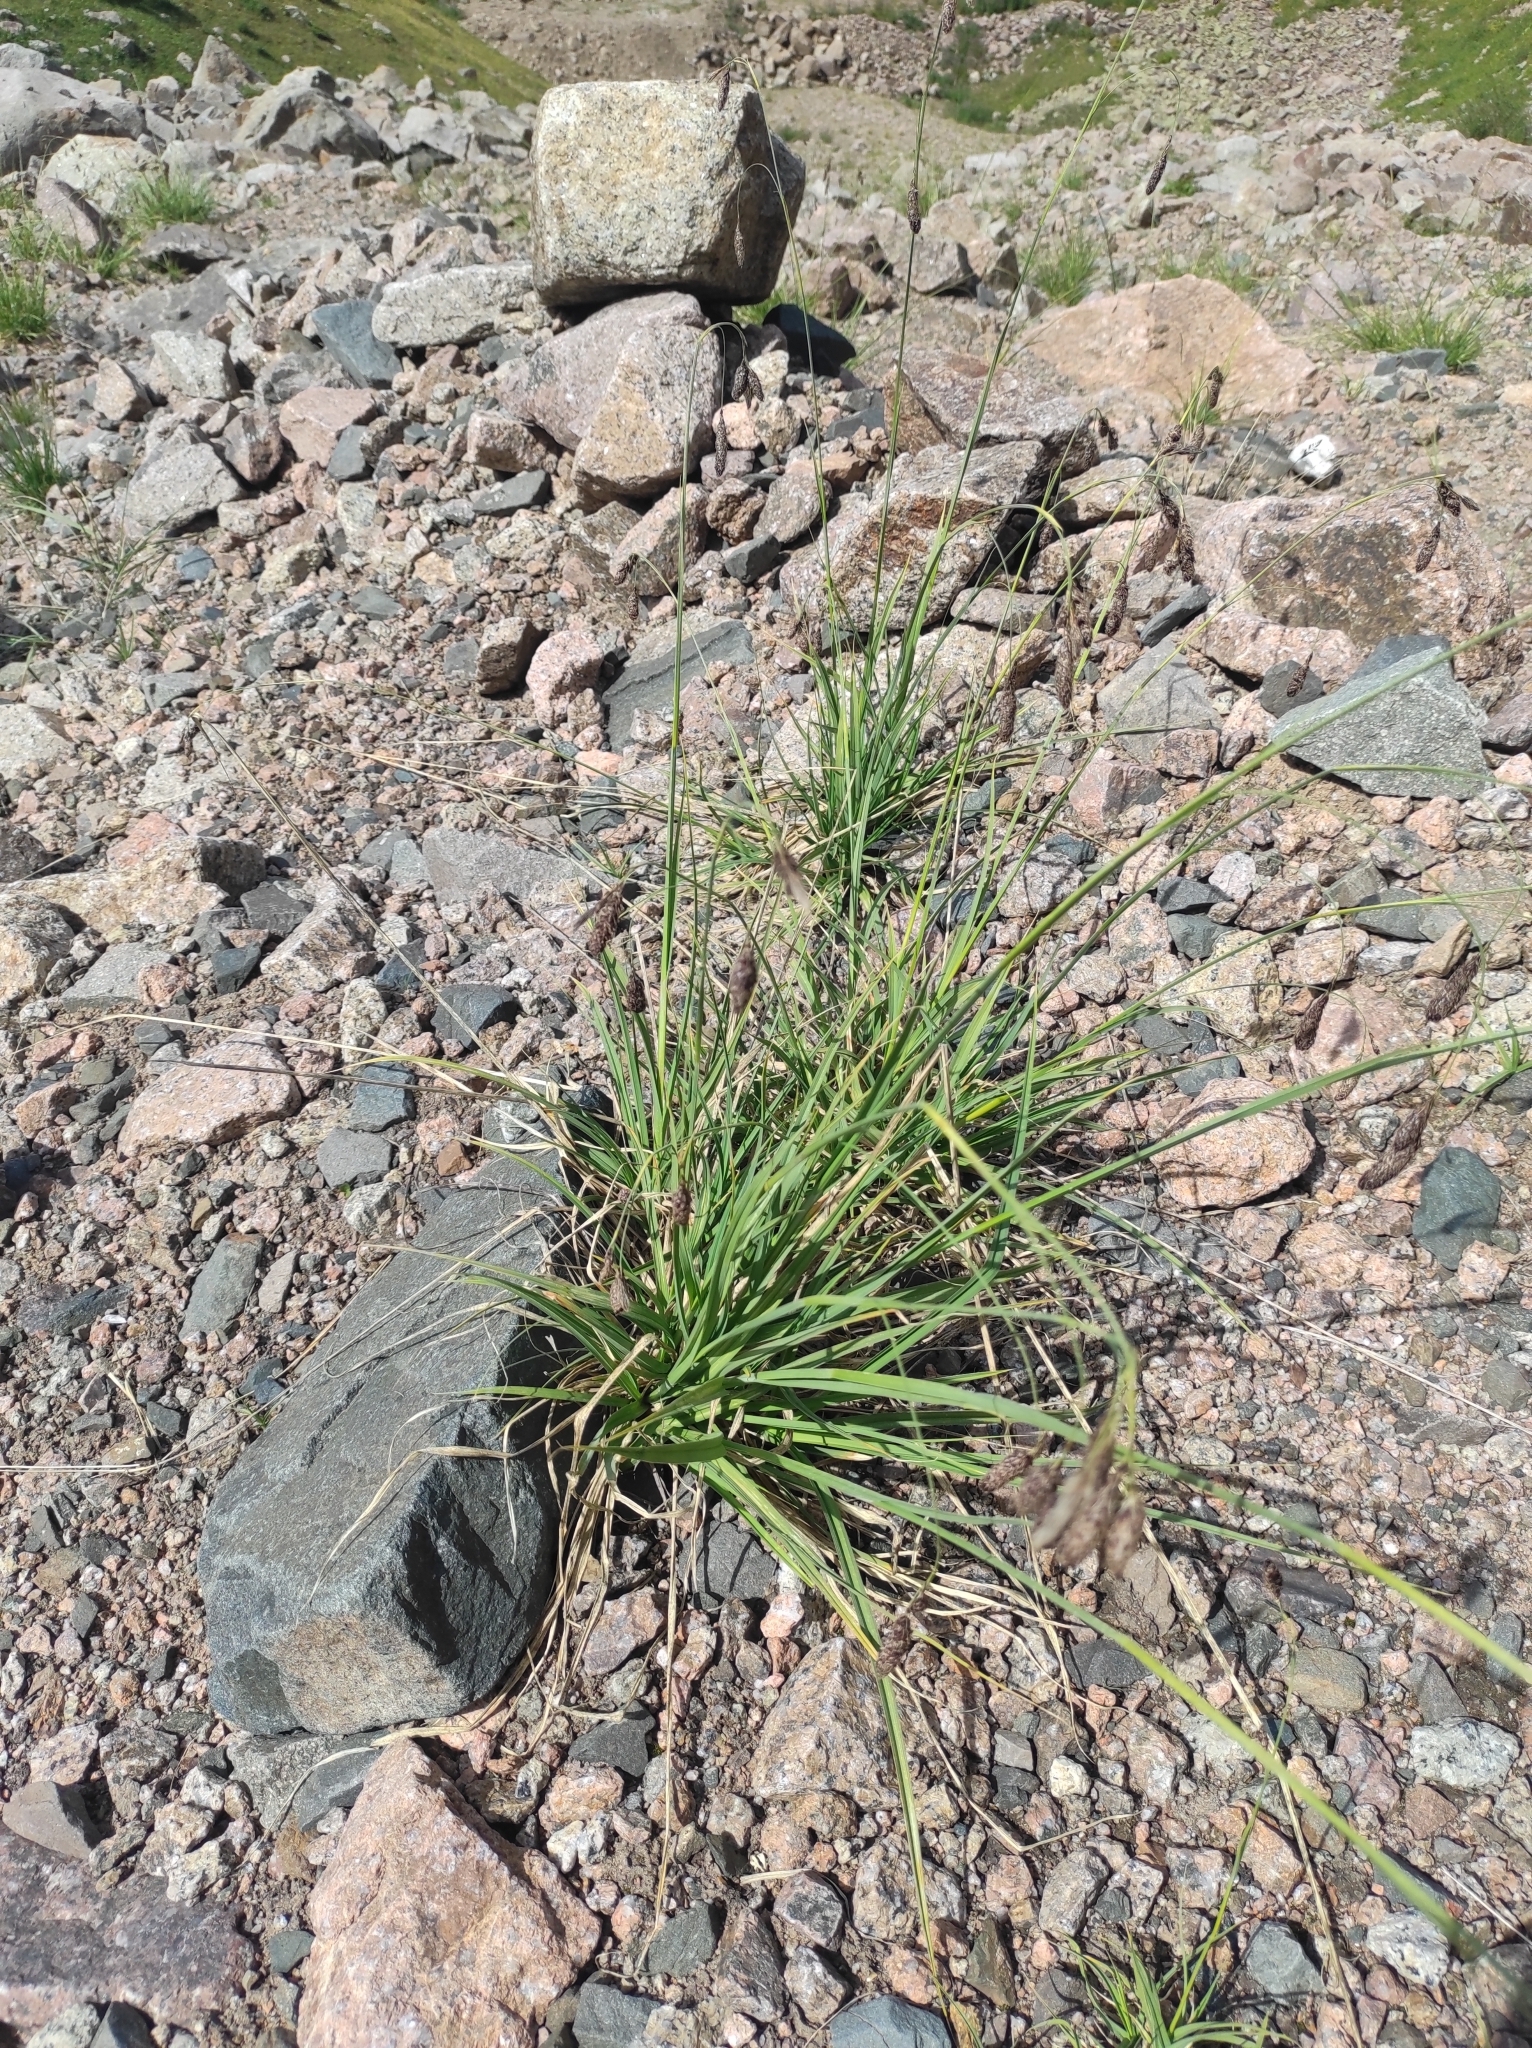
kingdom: Plantae
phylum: Tracheophyta
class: Liliopsida
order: Poales
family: Cyperaceae
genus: Carex
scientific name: Carex aterrima
